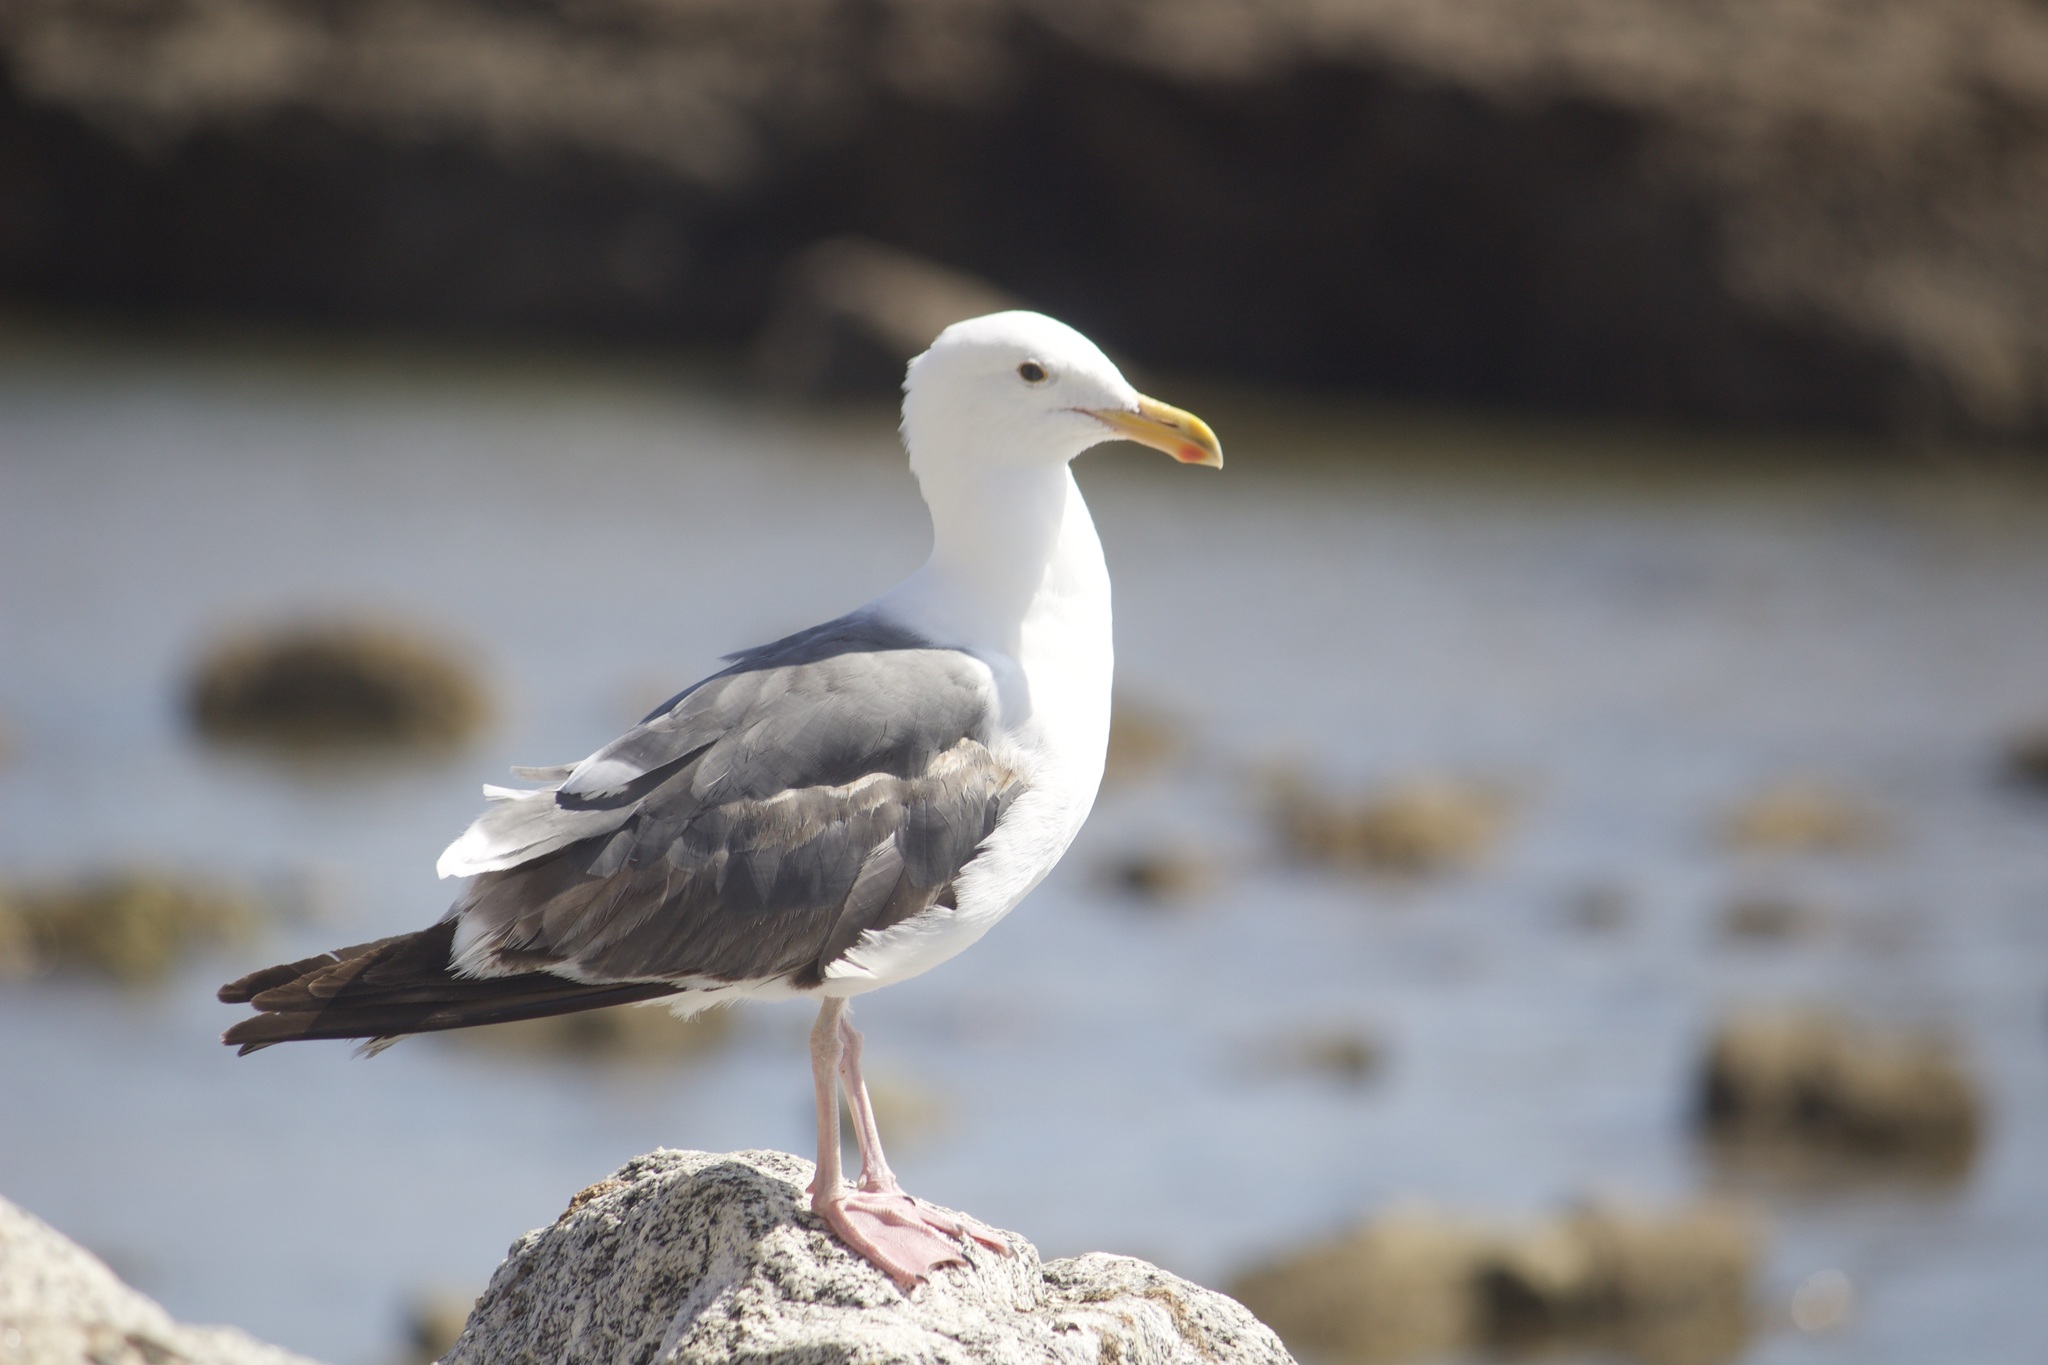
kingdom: Animalia
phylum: Chordata
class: Aves
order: Charadriiformes
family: Laridae
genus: Larus
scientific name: Larus occidentalis
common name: Western gull
